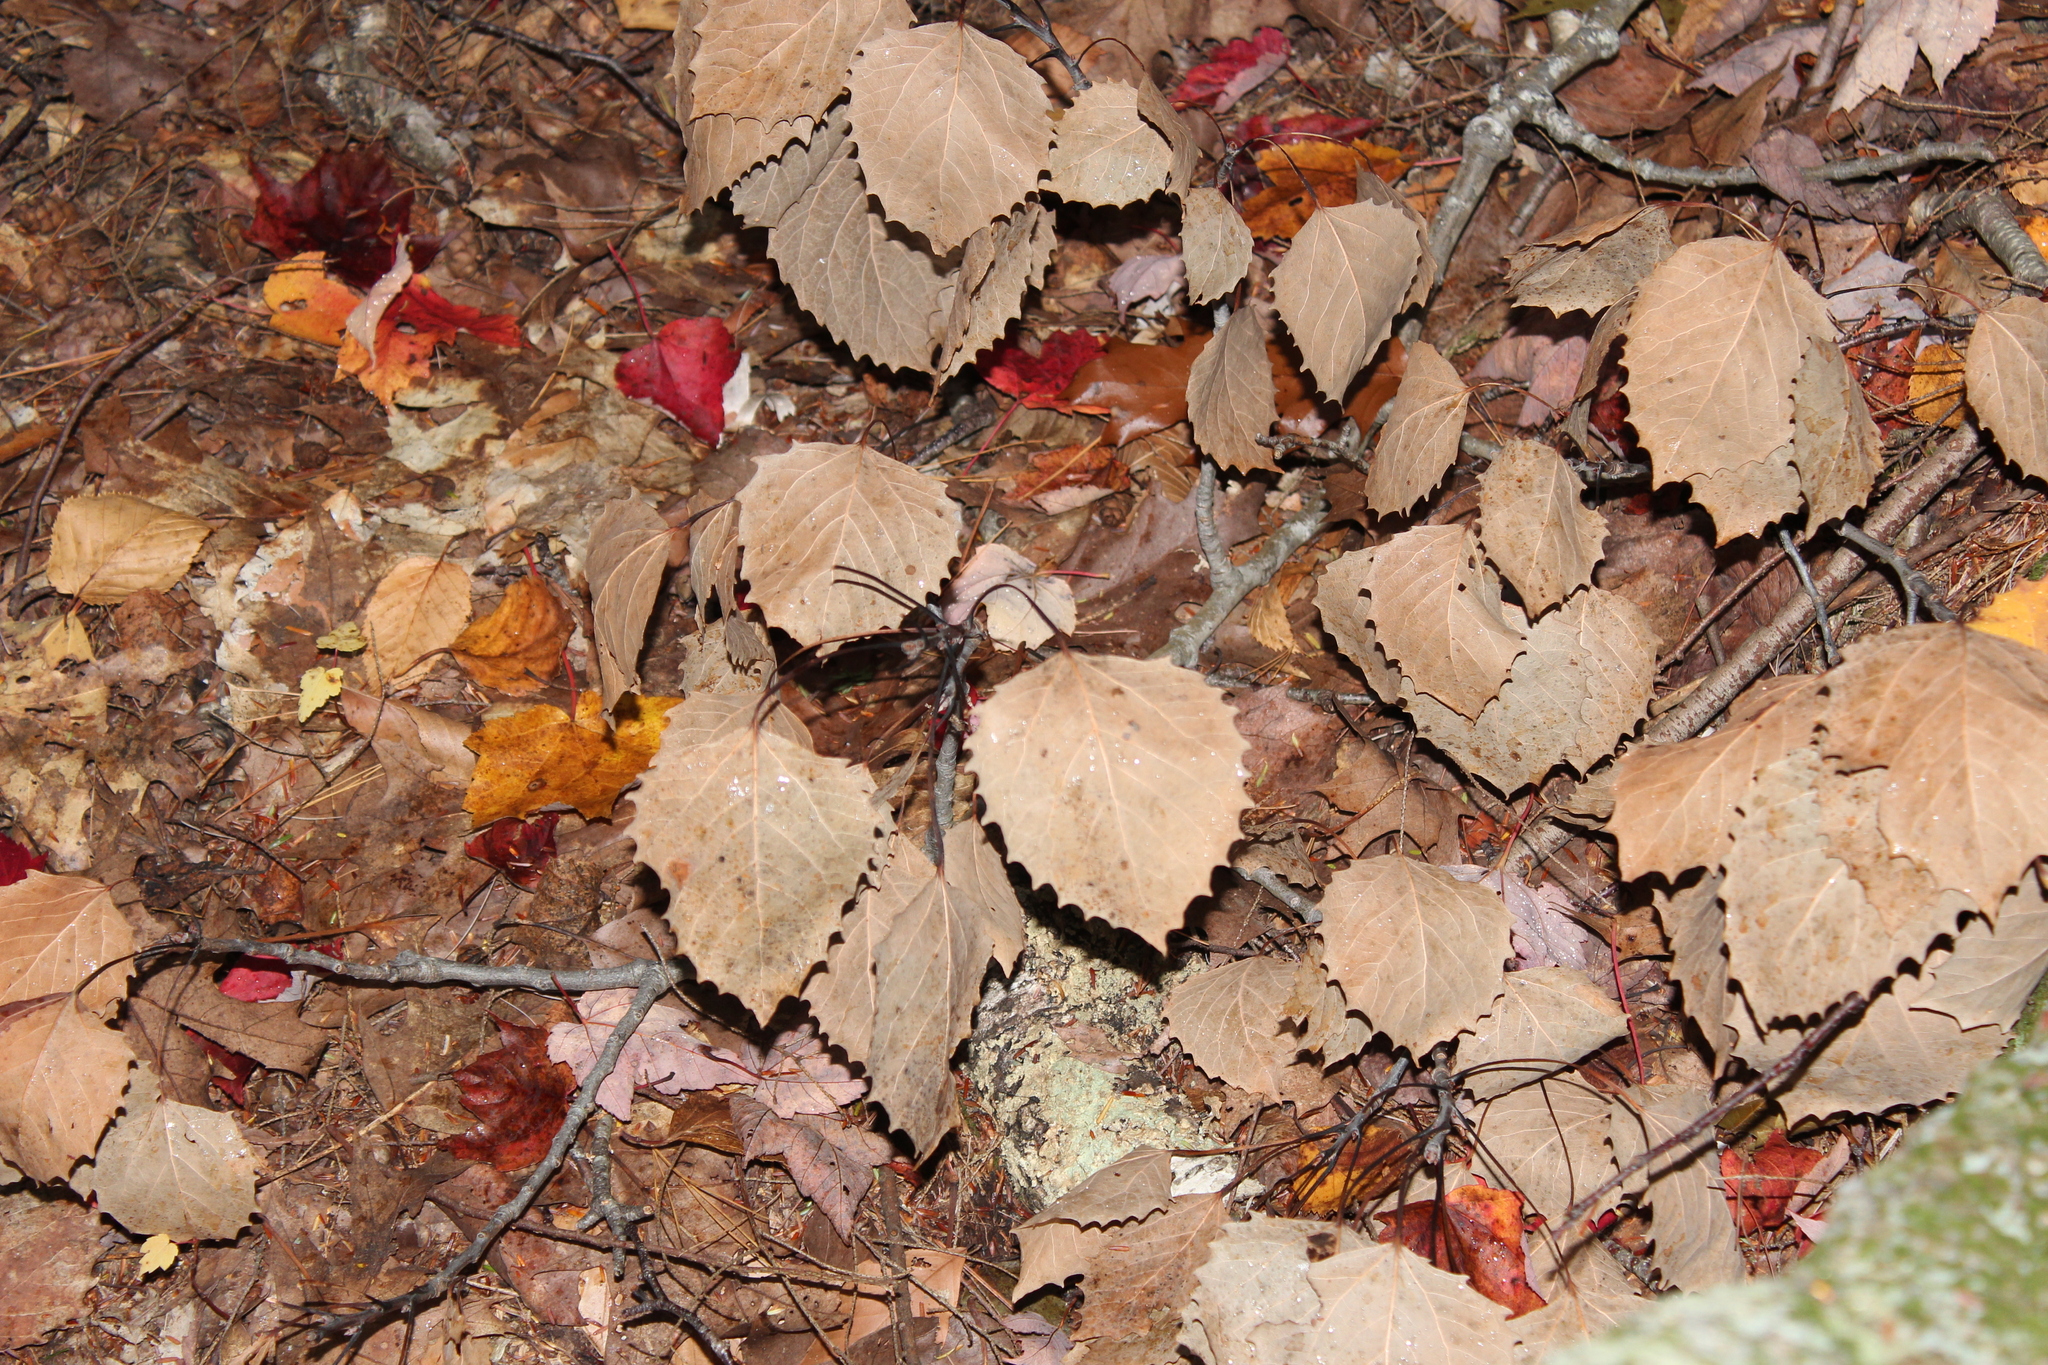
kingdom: Plantae
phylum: Tracheophyta
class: Magnoliopsida
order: Malpighiales
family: Salicaceae
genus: Populus
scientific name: Populus grandidentata
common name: Bigtooth aspen
